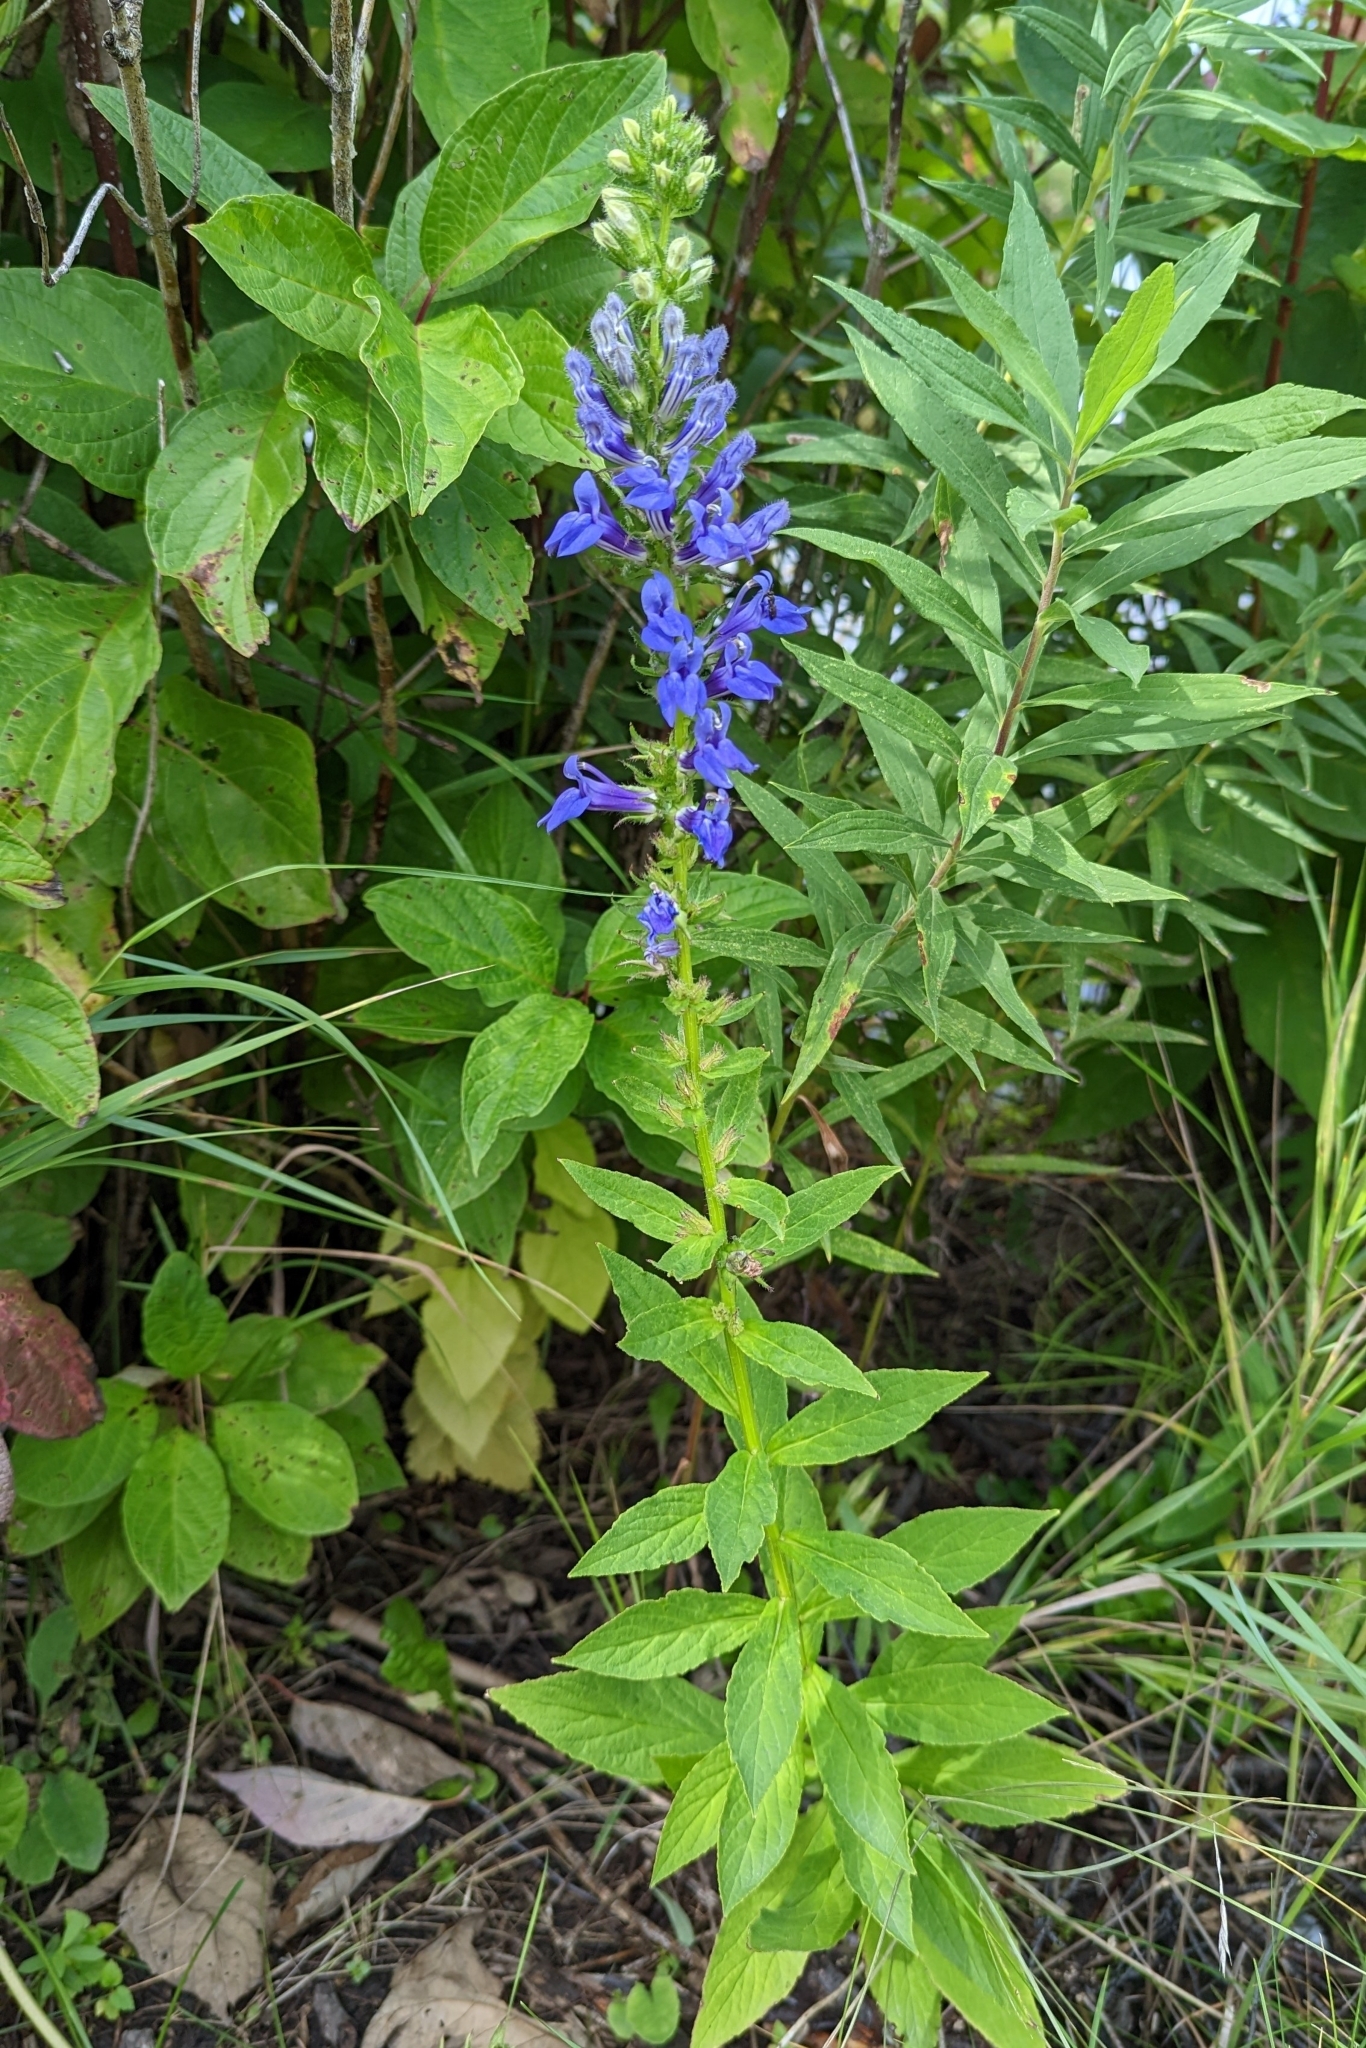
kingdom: Plantae
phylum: Tracheophyta
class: Magnoliopsida
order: Asterales
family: Campanulaceae
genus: Lobelia
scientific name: Lobelia siphilitica
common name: Great lobelia
